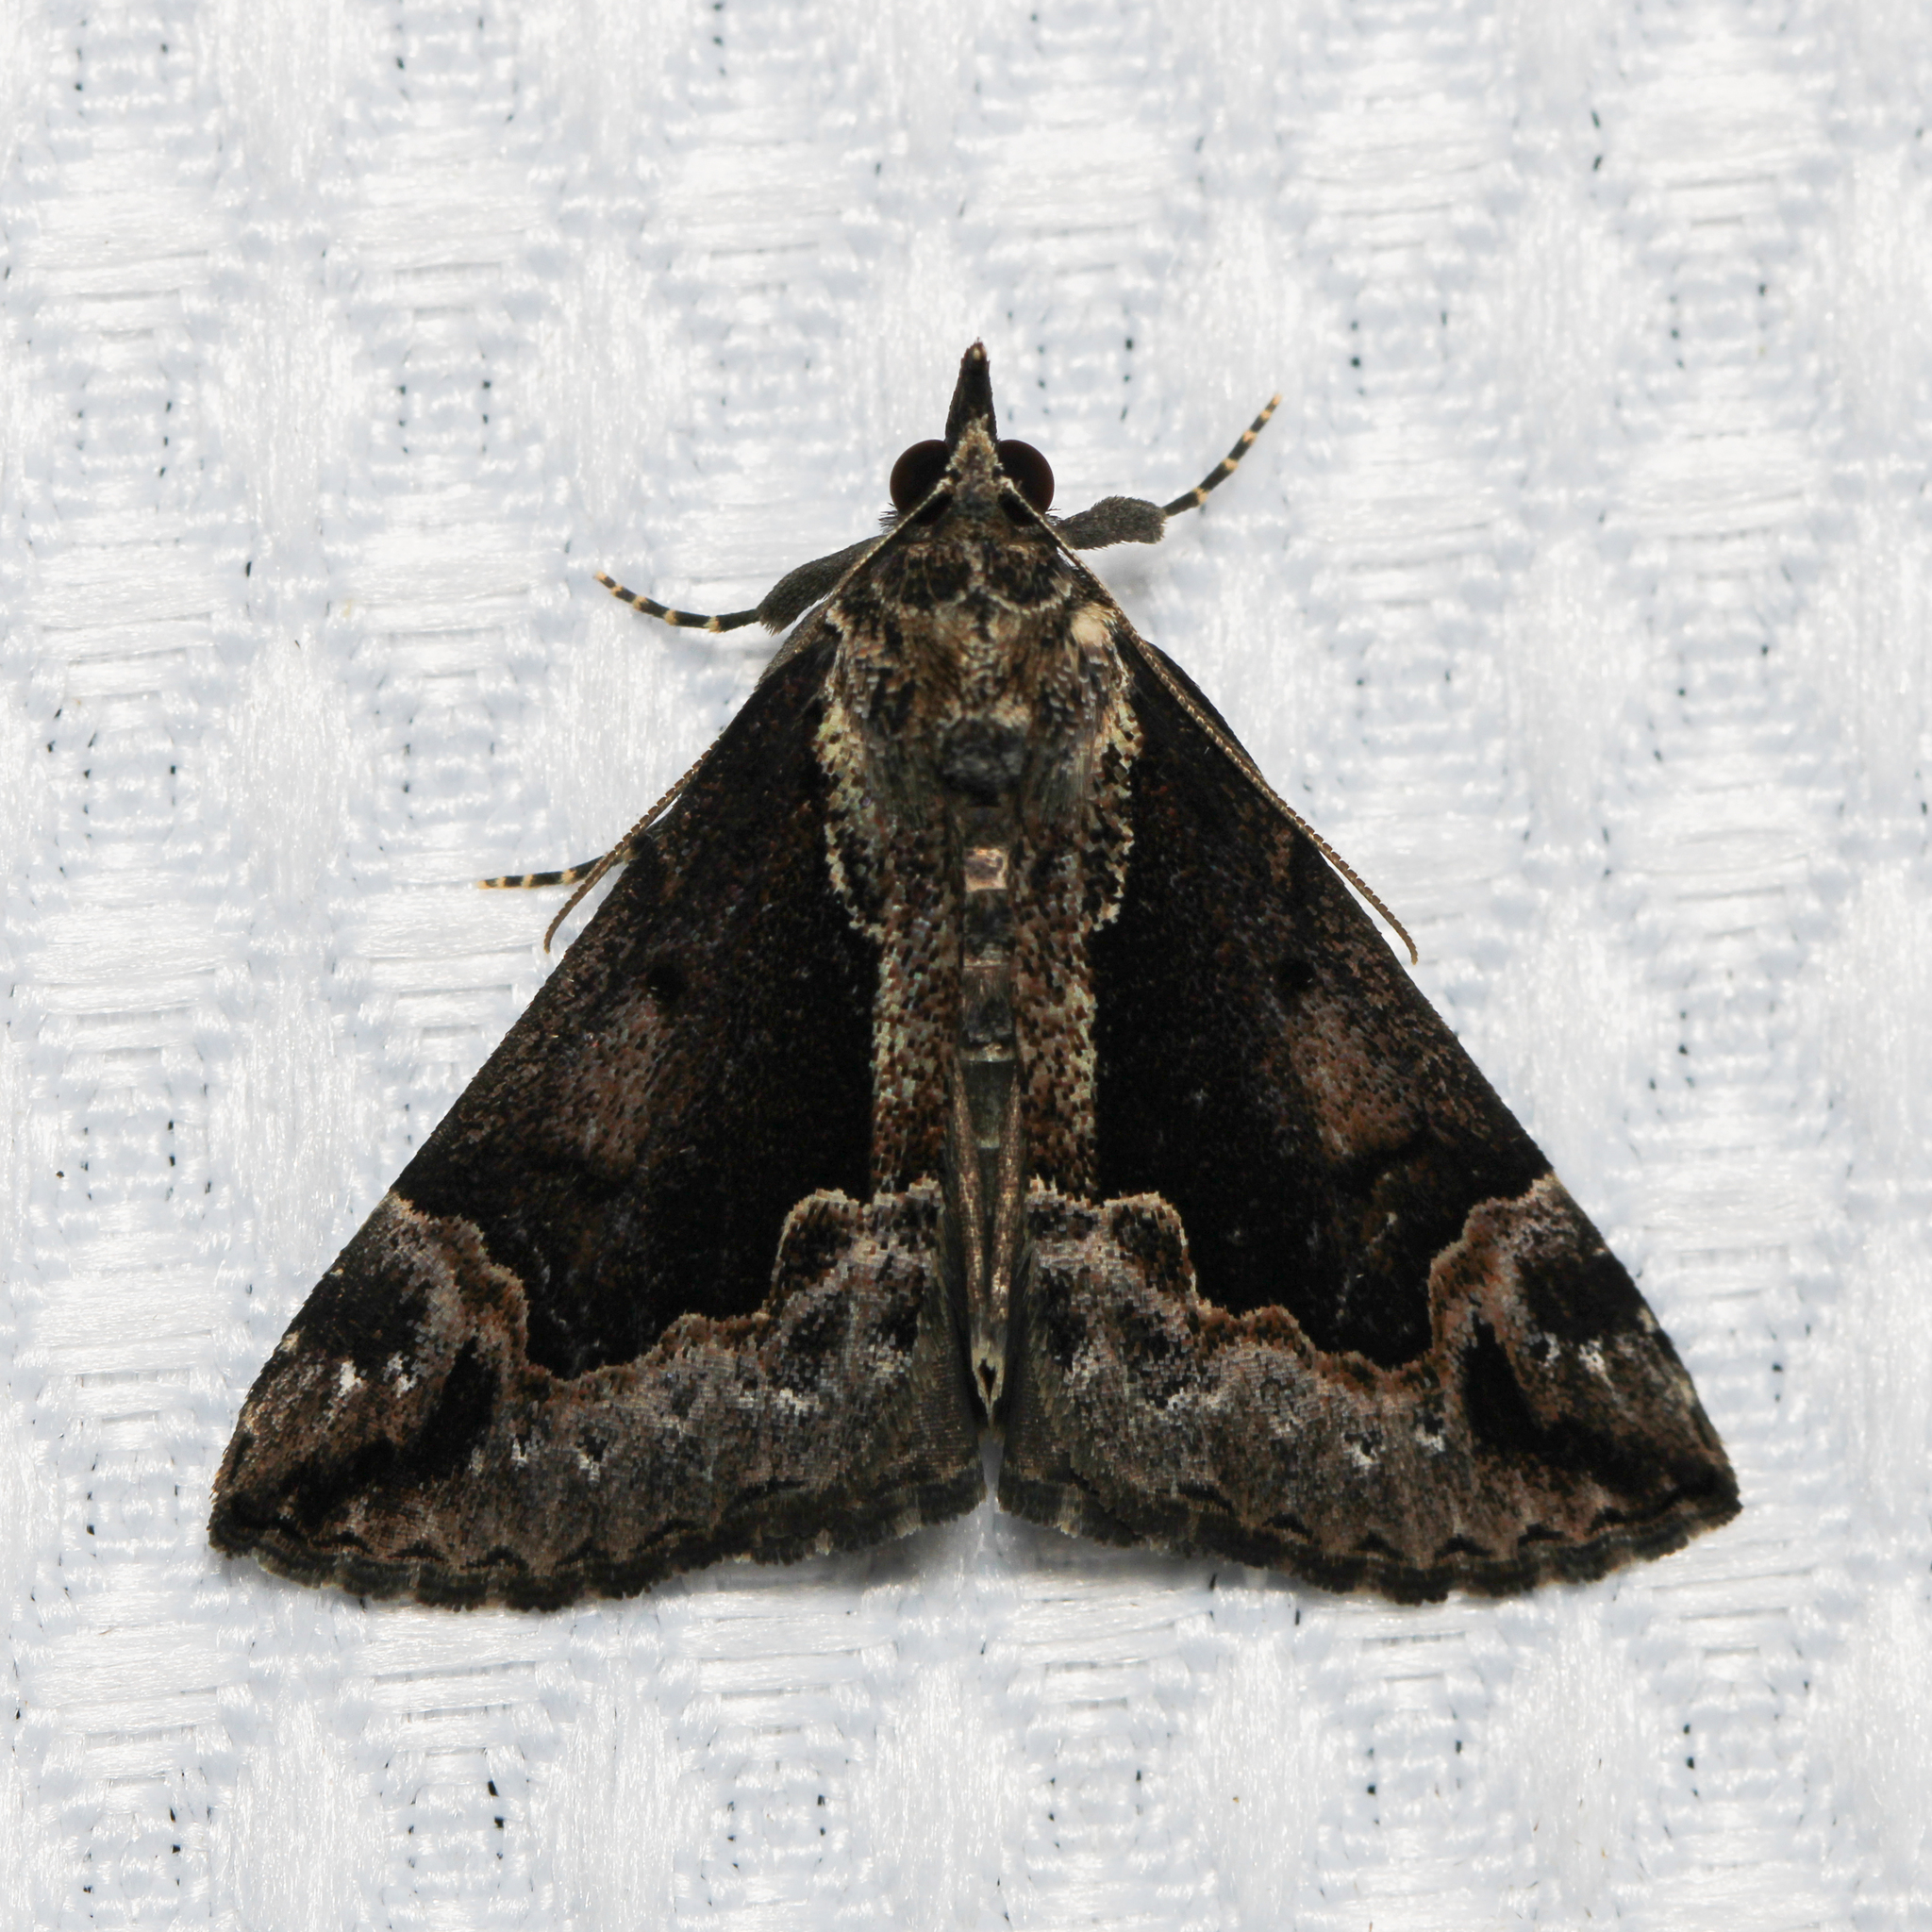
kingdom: Animalia
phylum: Arthropoda
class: Insecta
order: Lepidoptera
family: Erebidae
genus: Hypena
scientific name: Hypena baltimoralis
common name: Baltimore snout
